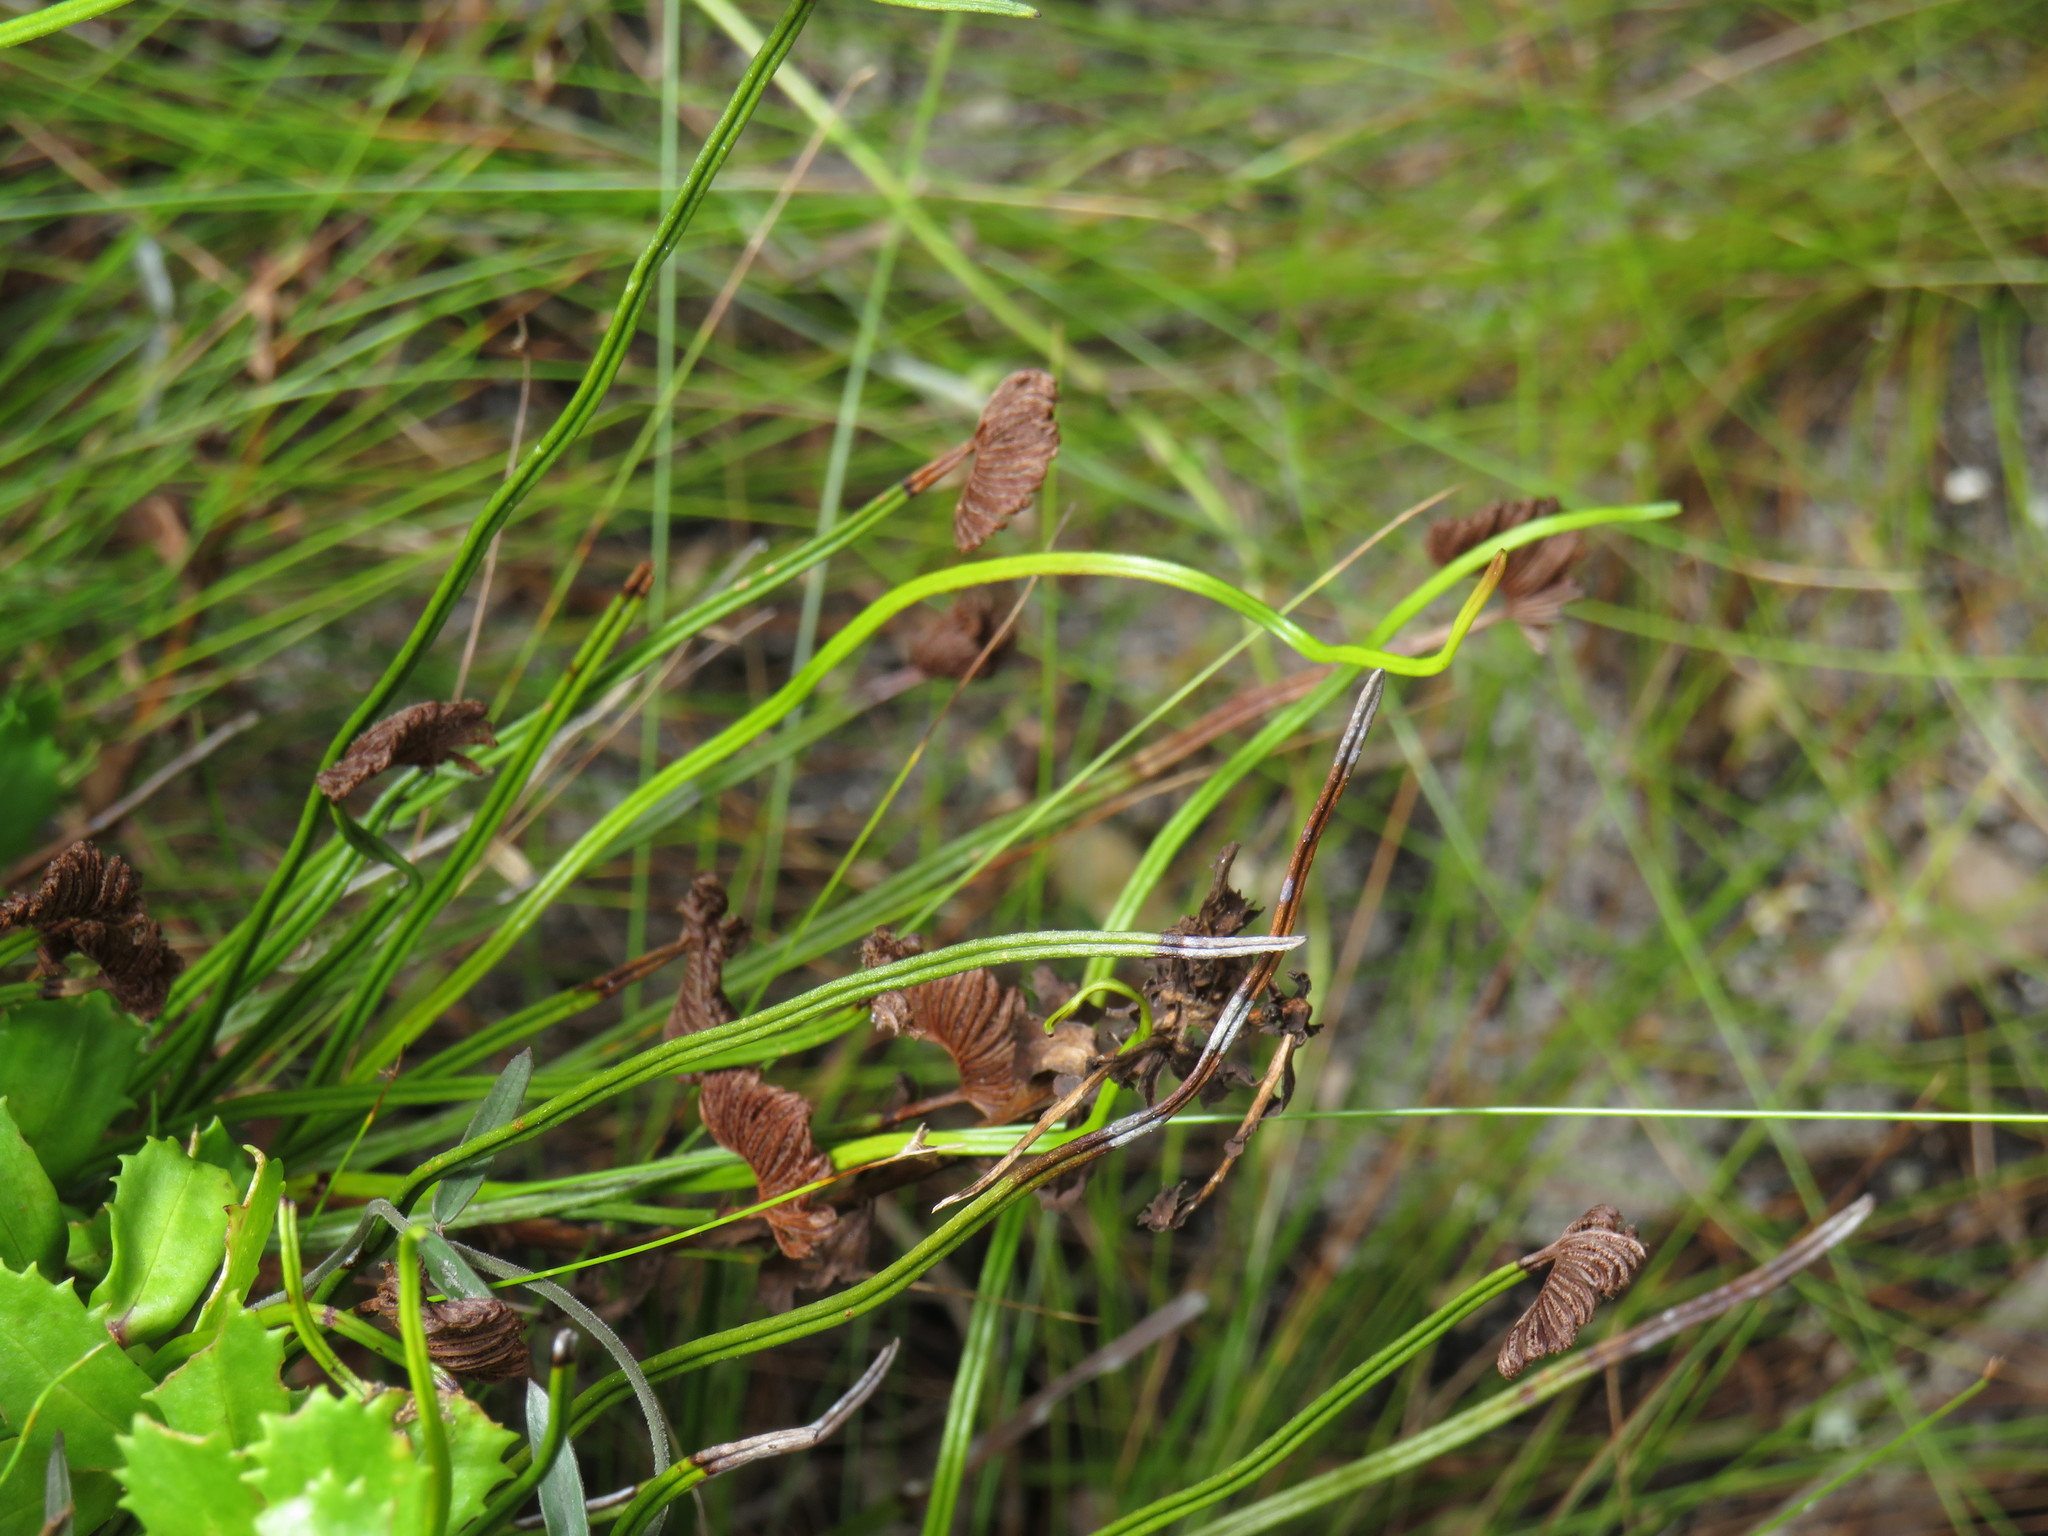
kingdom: Plantae
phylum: Tracheophyta
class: Polypodiopsida
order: Schizaeales
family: Schizaeaceae
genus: Schizaea
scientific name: Schizaea pectinata
